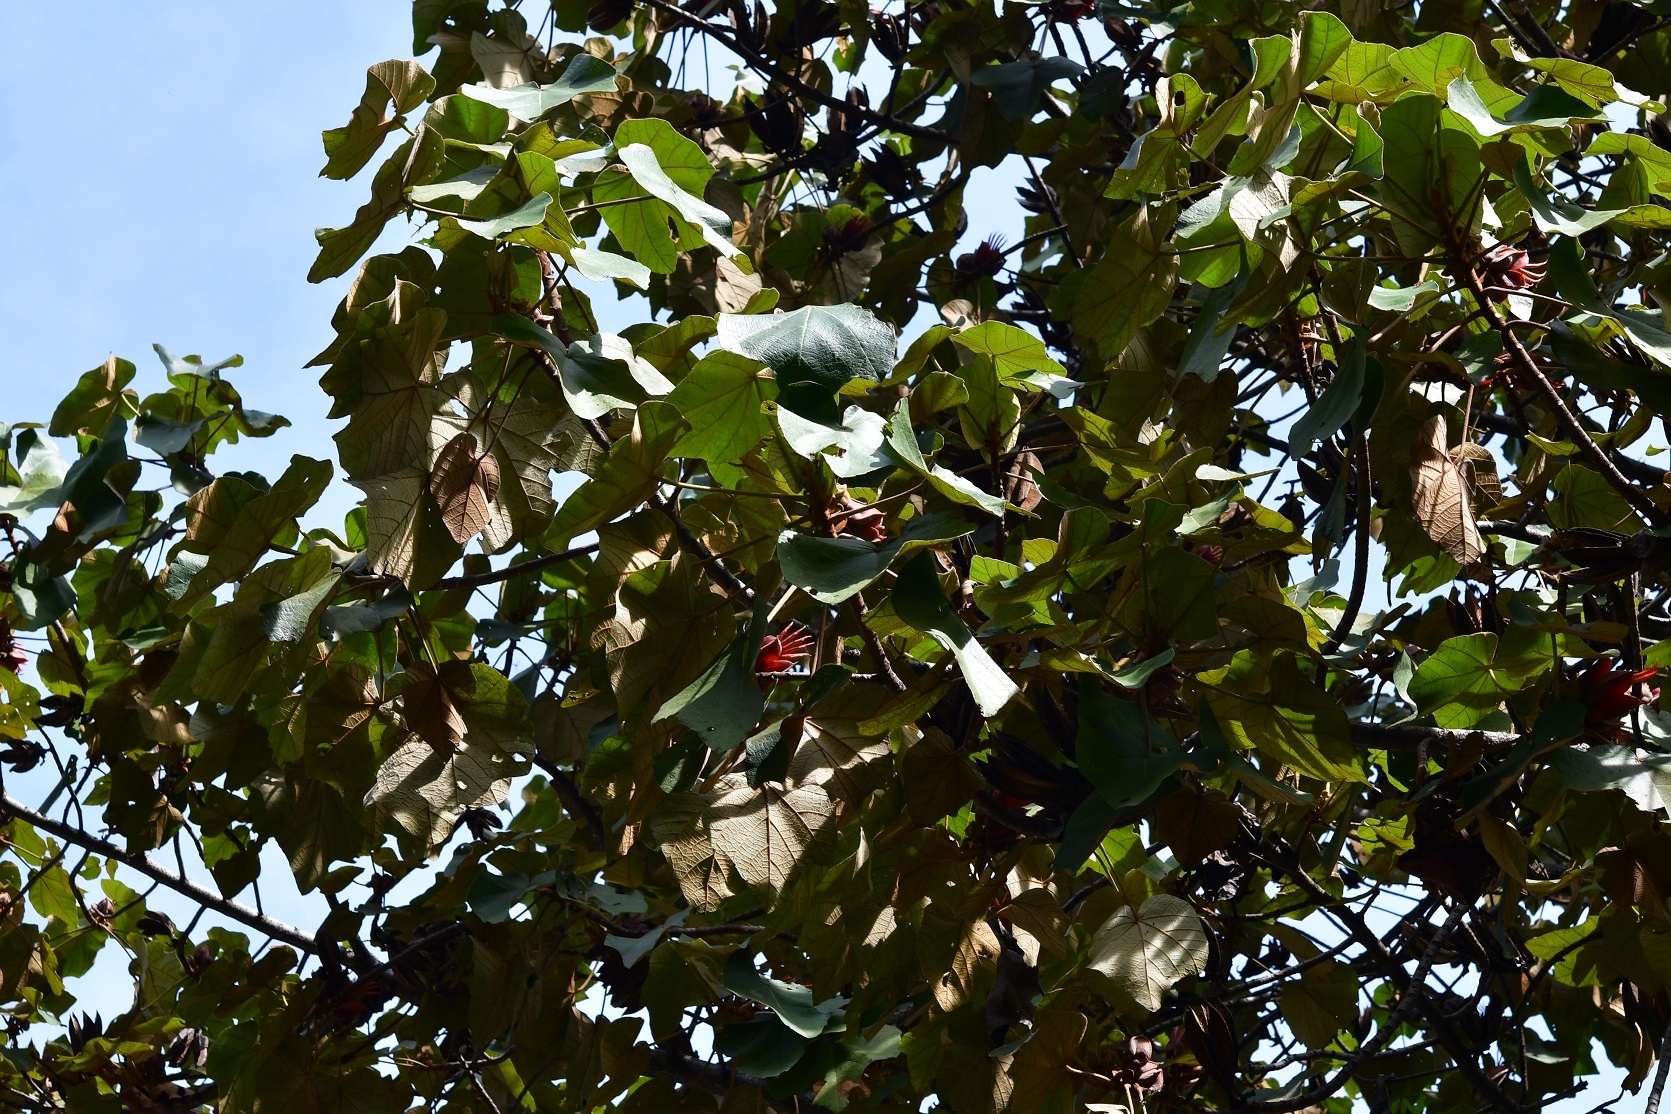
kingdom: Plantae
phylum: Tracheophyta
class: Magnoliopsida
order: Malvales
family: Malvaceae
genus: Chiranthodendron
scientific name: Chiranthodendron pentadactylon
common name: Mexican-hat-plant
